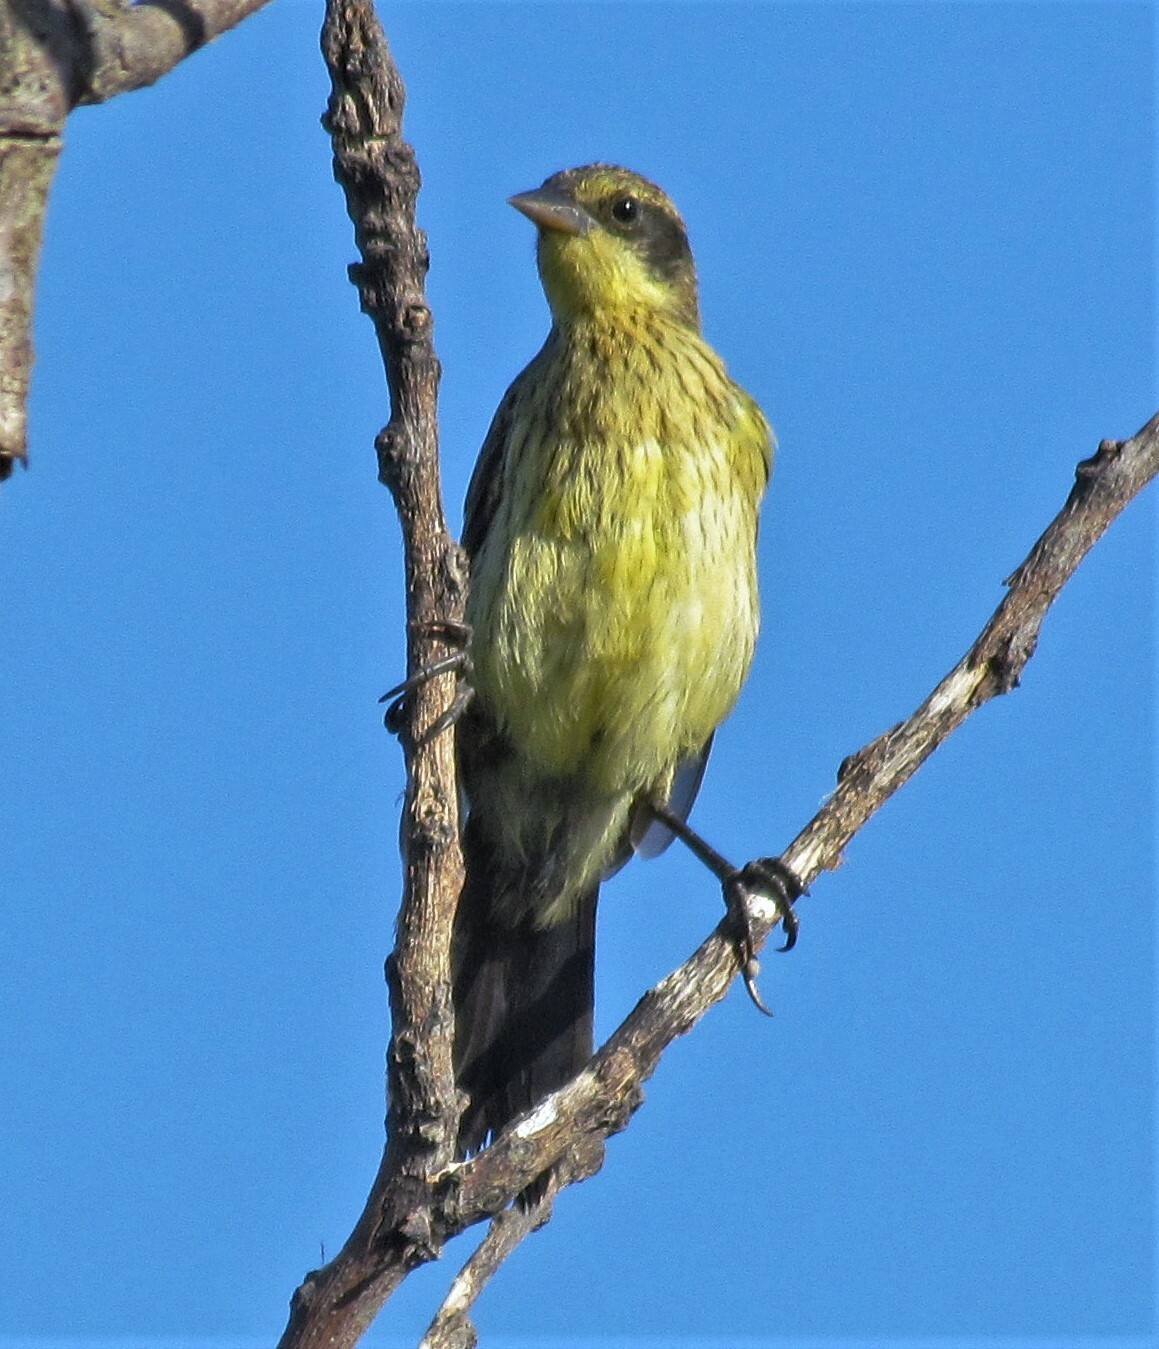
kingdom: Animalia
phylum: Chordata
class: Aves
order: Passeriformes
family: Icteridae
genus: Agelasticus
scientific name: Agelasticus cyanopus
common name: Unicolored blackbird
